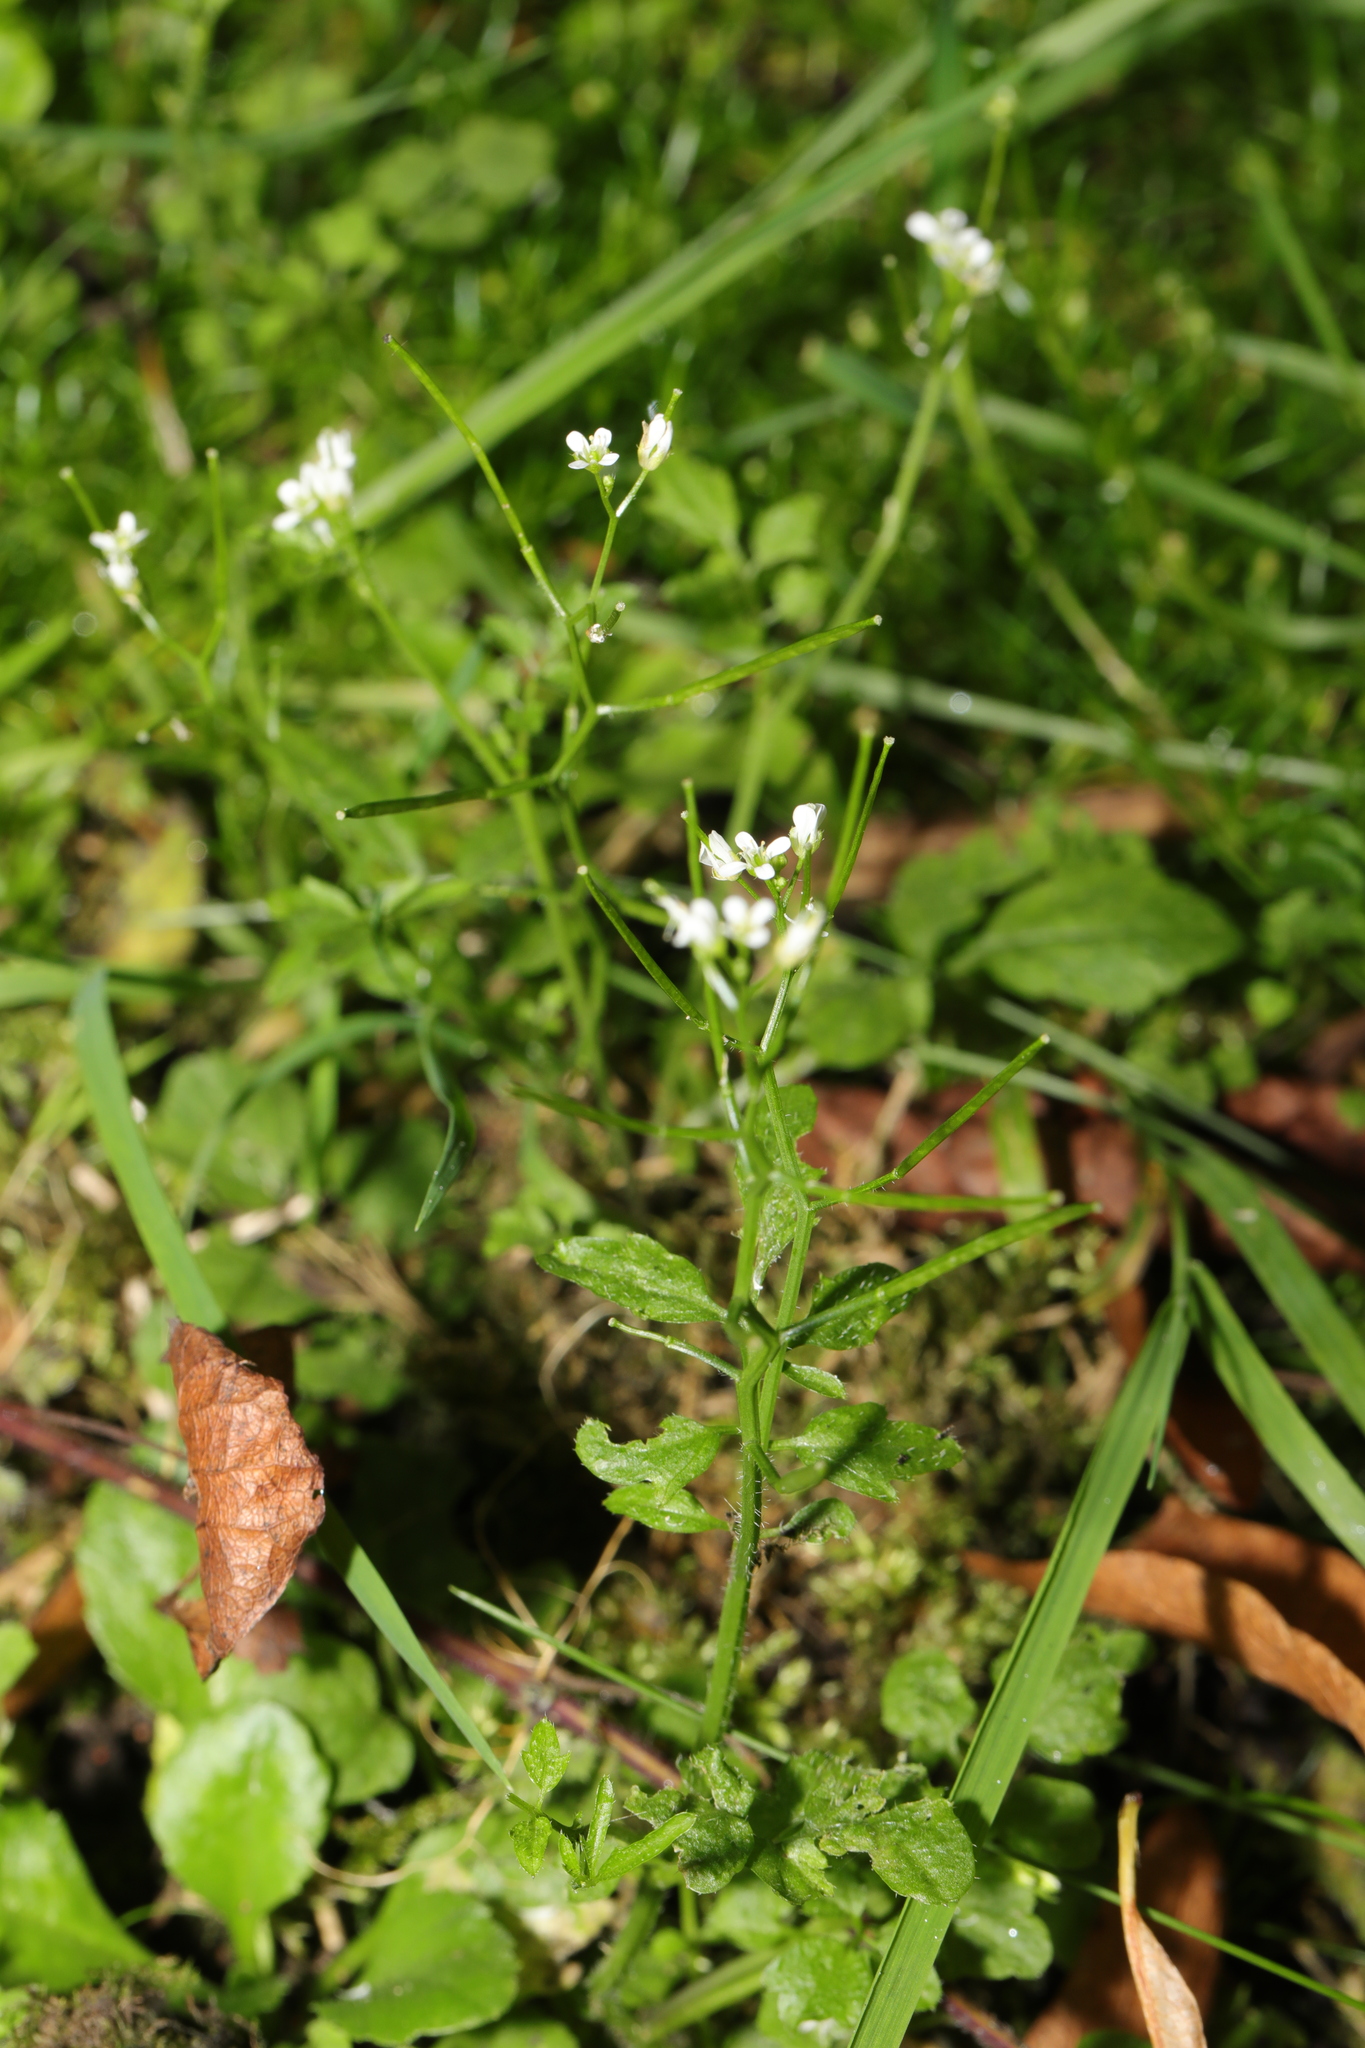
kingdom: Plantae
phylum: Tracheophyta
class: Magnoliopsida
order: Brassicales
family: Brassicaceae
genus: Cardamine
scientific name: Cardamine flexuosa
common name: Woodland bittercress
